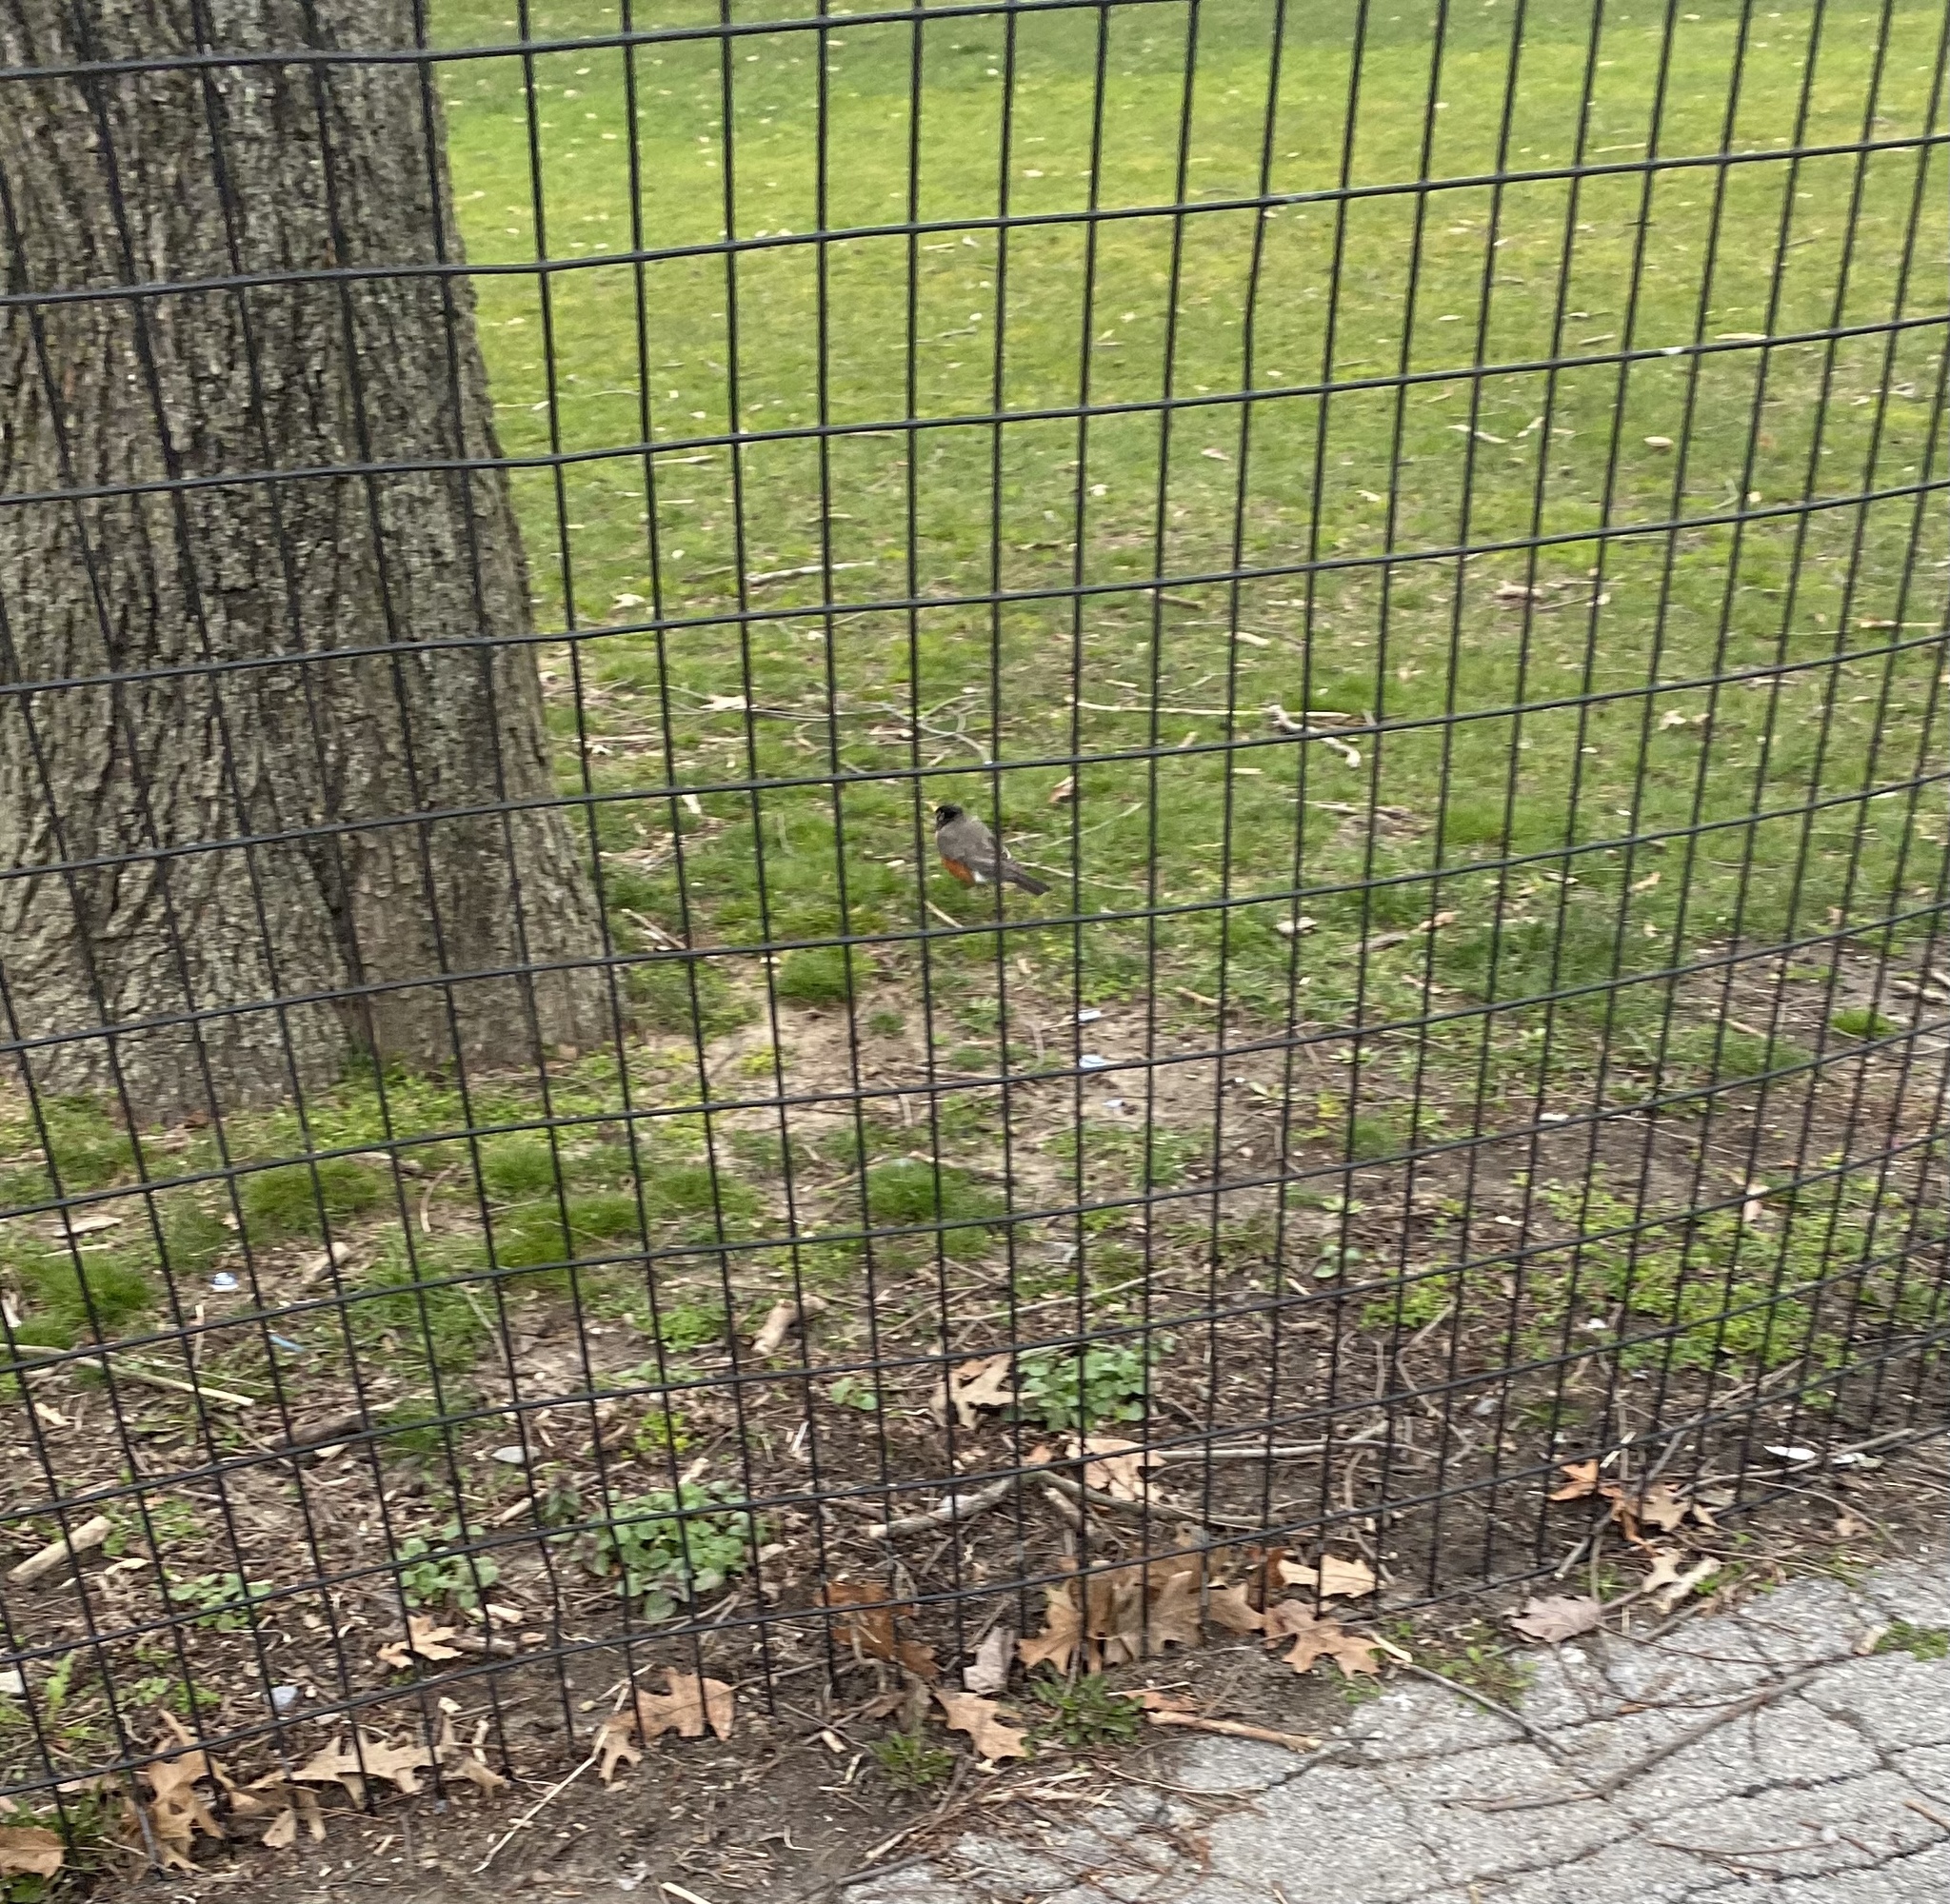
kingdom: Animalia
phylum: Chordata
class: Aves
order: Passeriformes
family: Turdidae
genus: Turdus
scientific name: Turdus migratorius
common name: American robin
